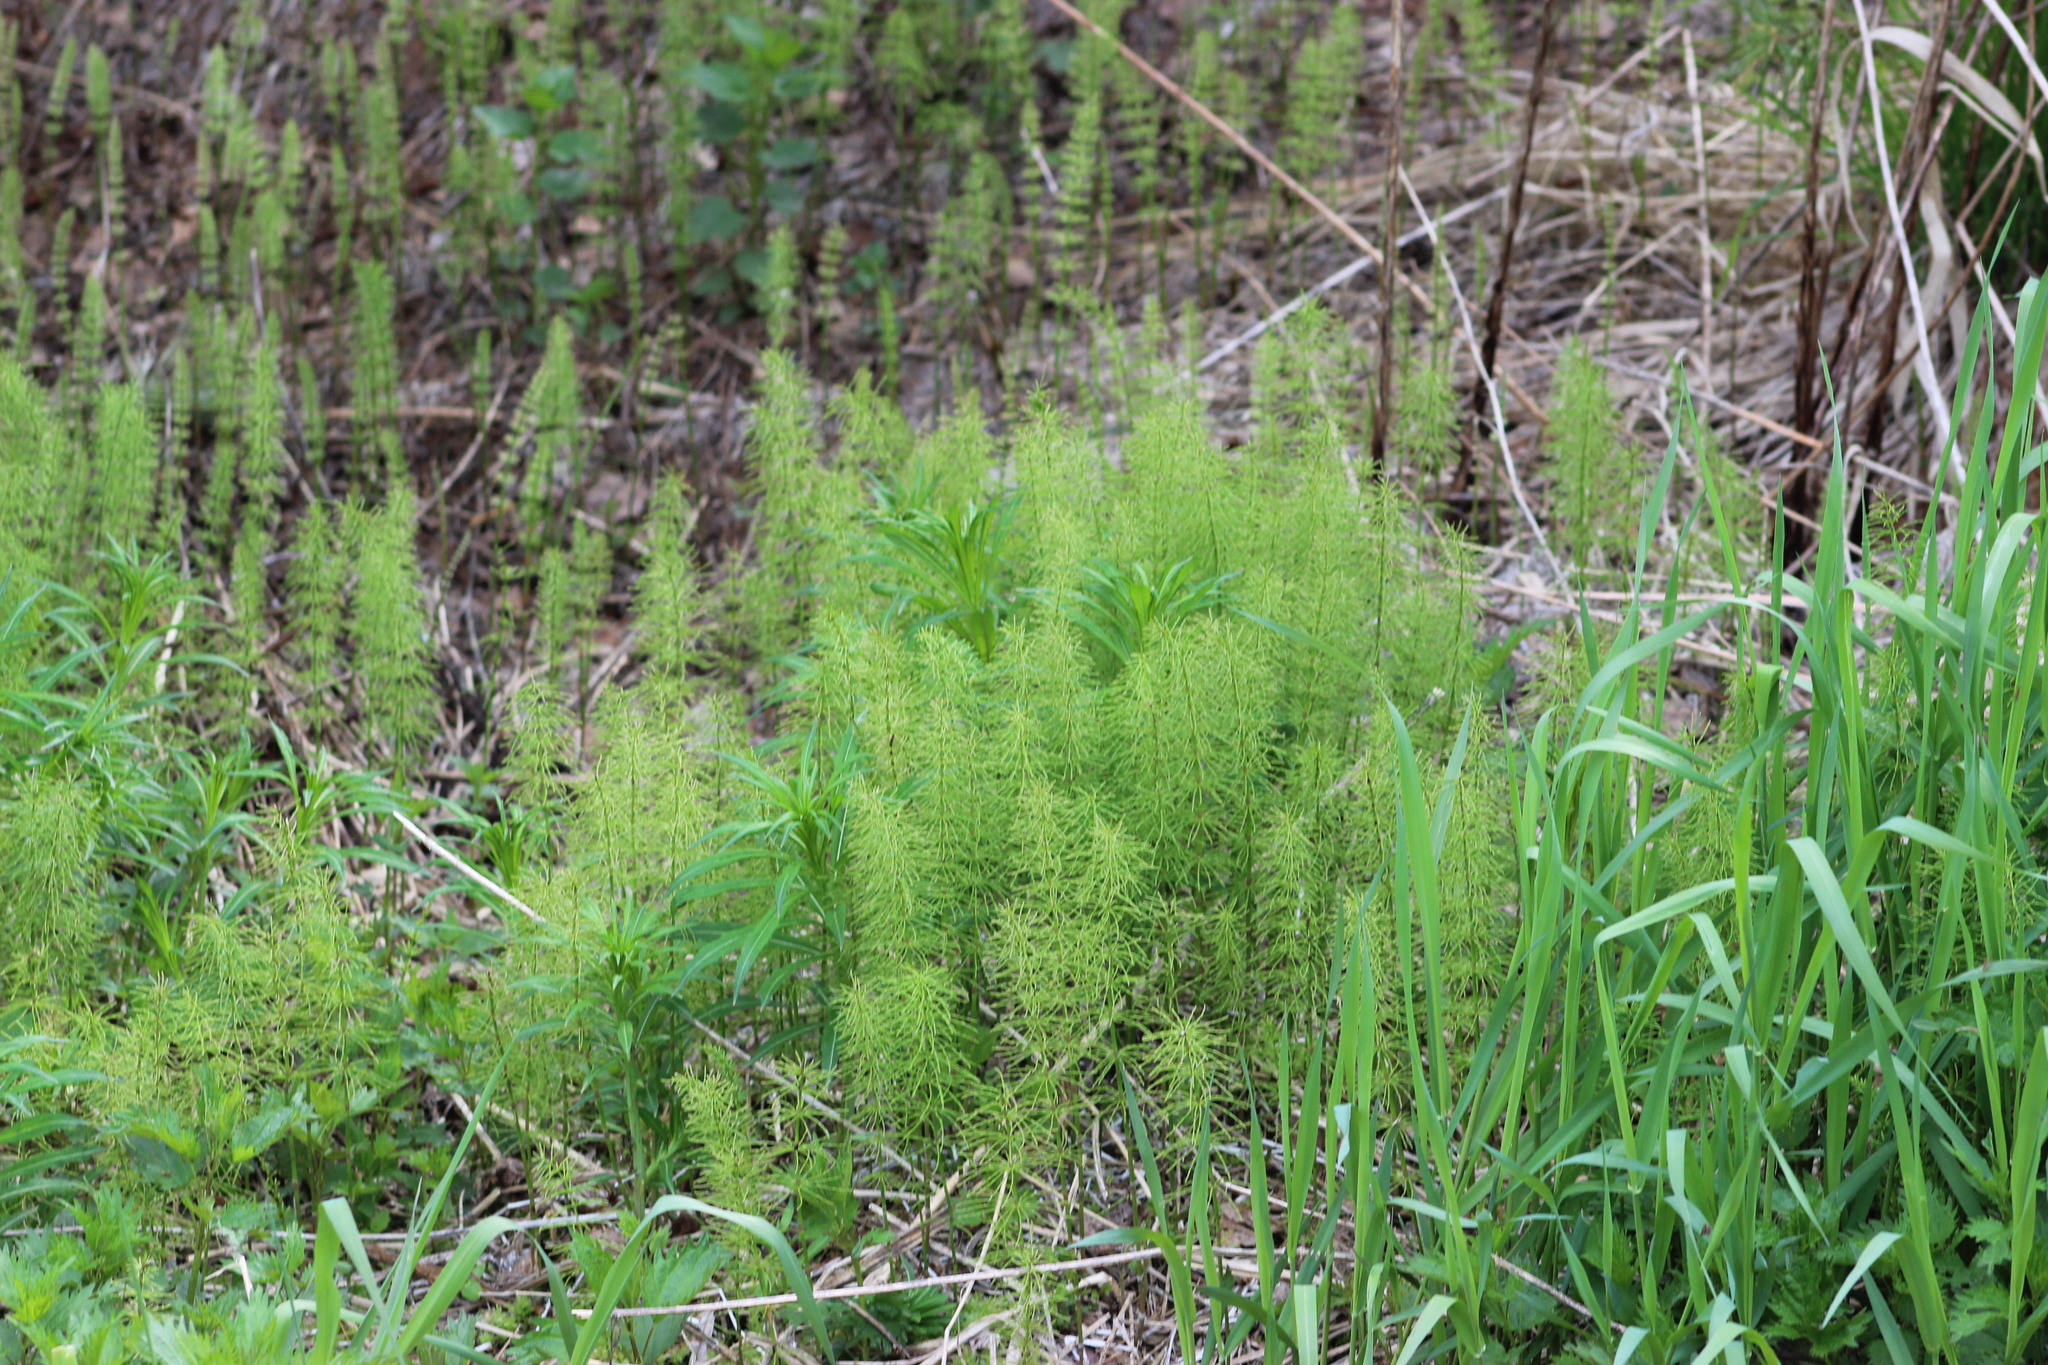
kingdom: Plantae
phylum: Tracheophyta
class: Polypodiopsida
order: Equisetales
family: Equisetaceae
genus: Equisetum
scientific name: Equisetum pratense
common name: Meadow horsetail
